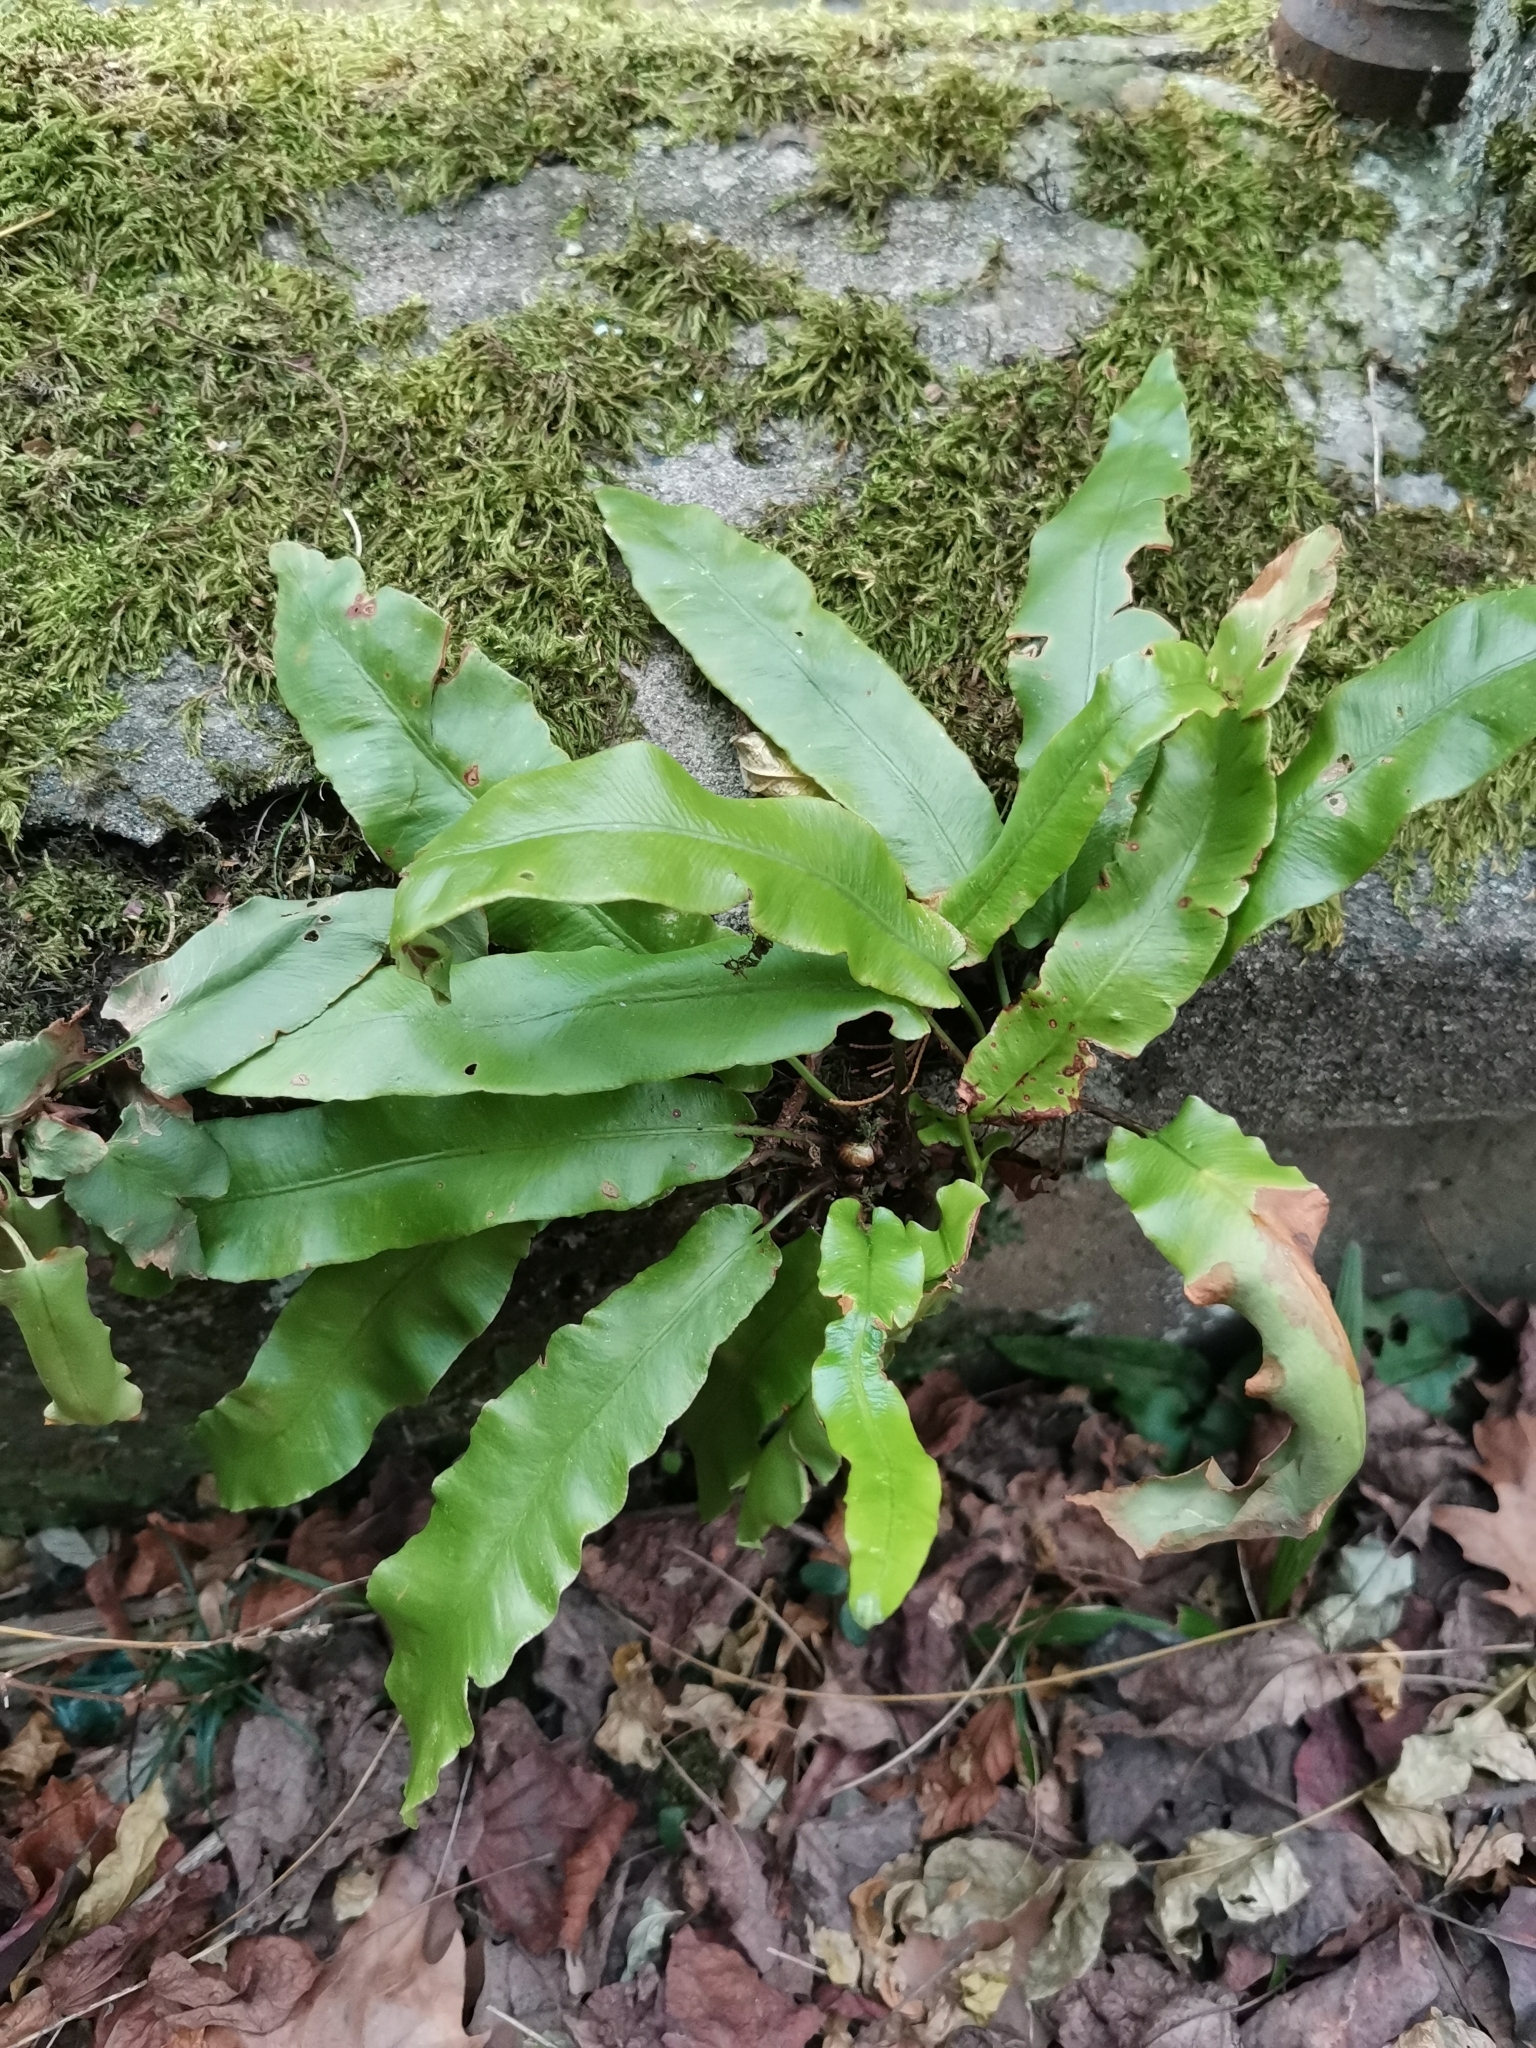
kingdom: Plantae
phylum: Tracheophyta
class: Polypodiopsida
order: Polypodiales
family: Aspleniaceae
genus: Asplenium
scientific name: Asplenium scolopendrium
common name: Hart's-tongue fern
